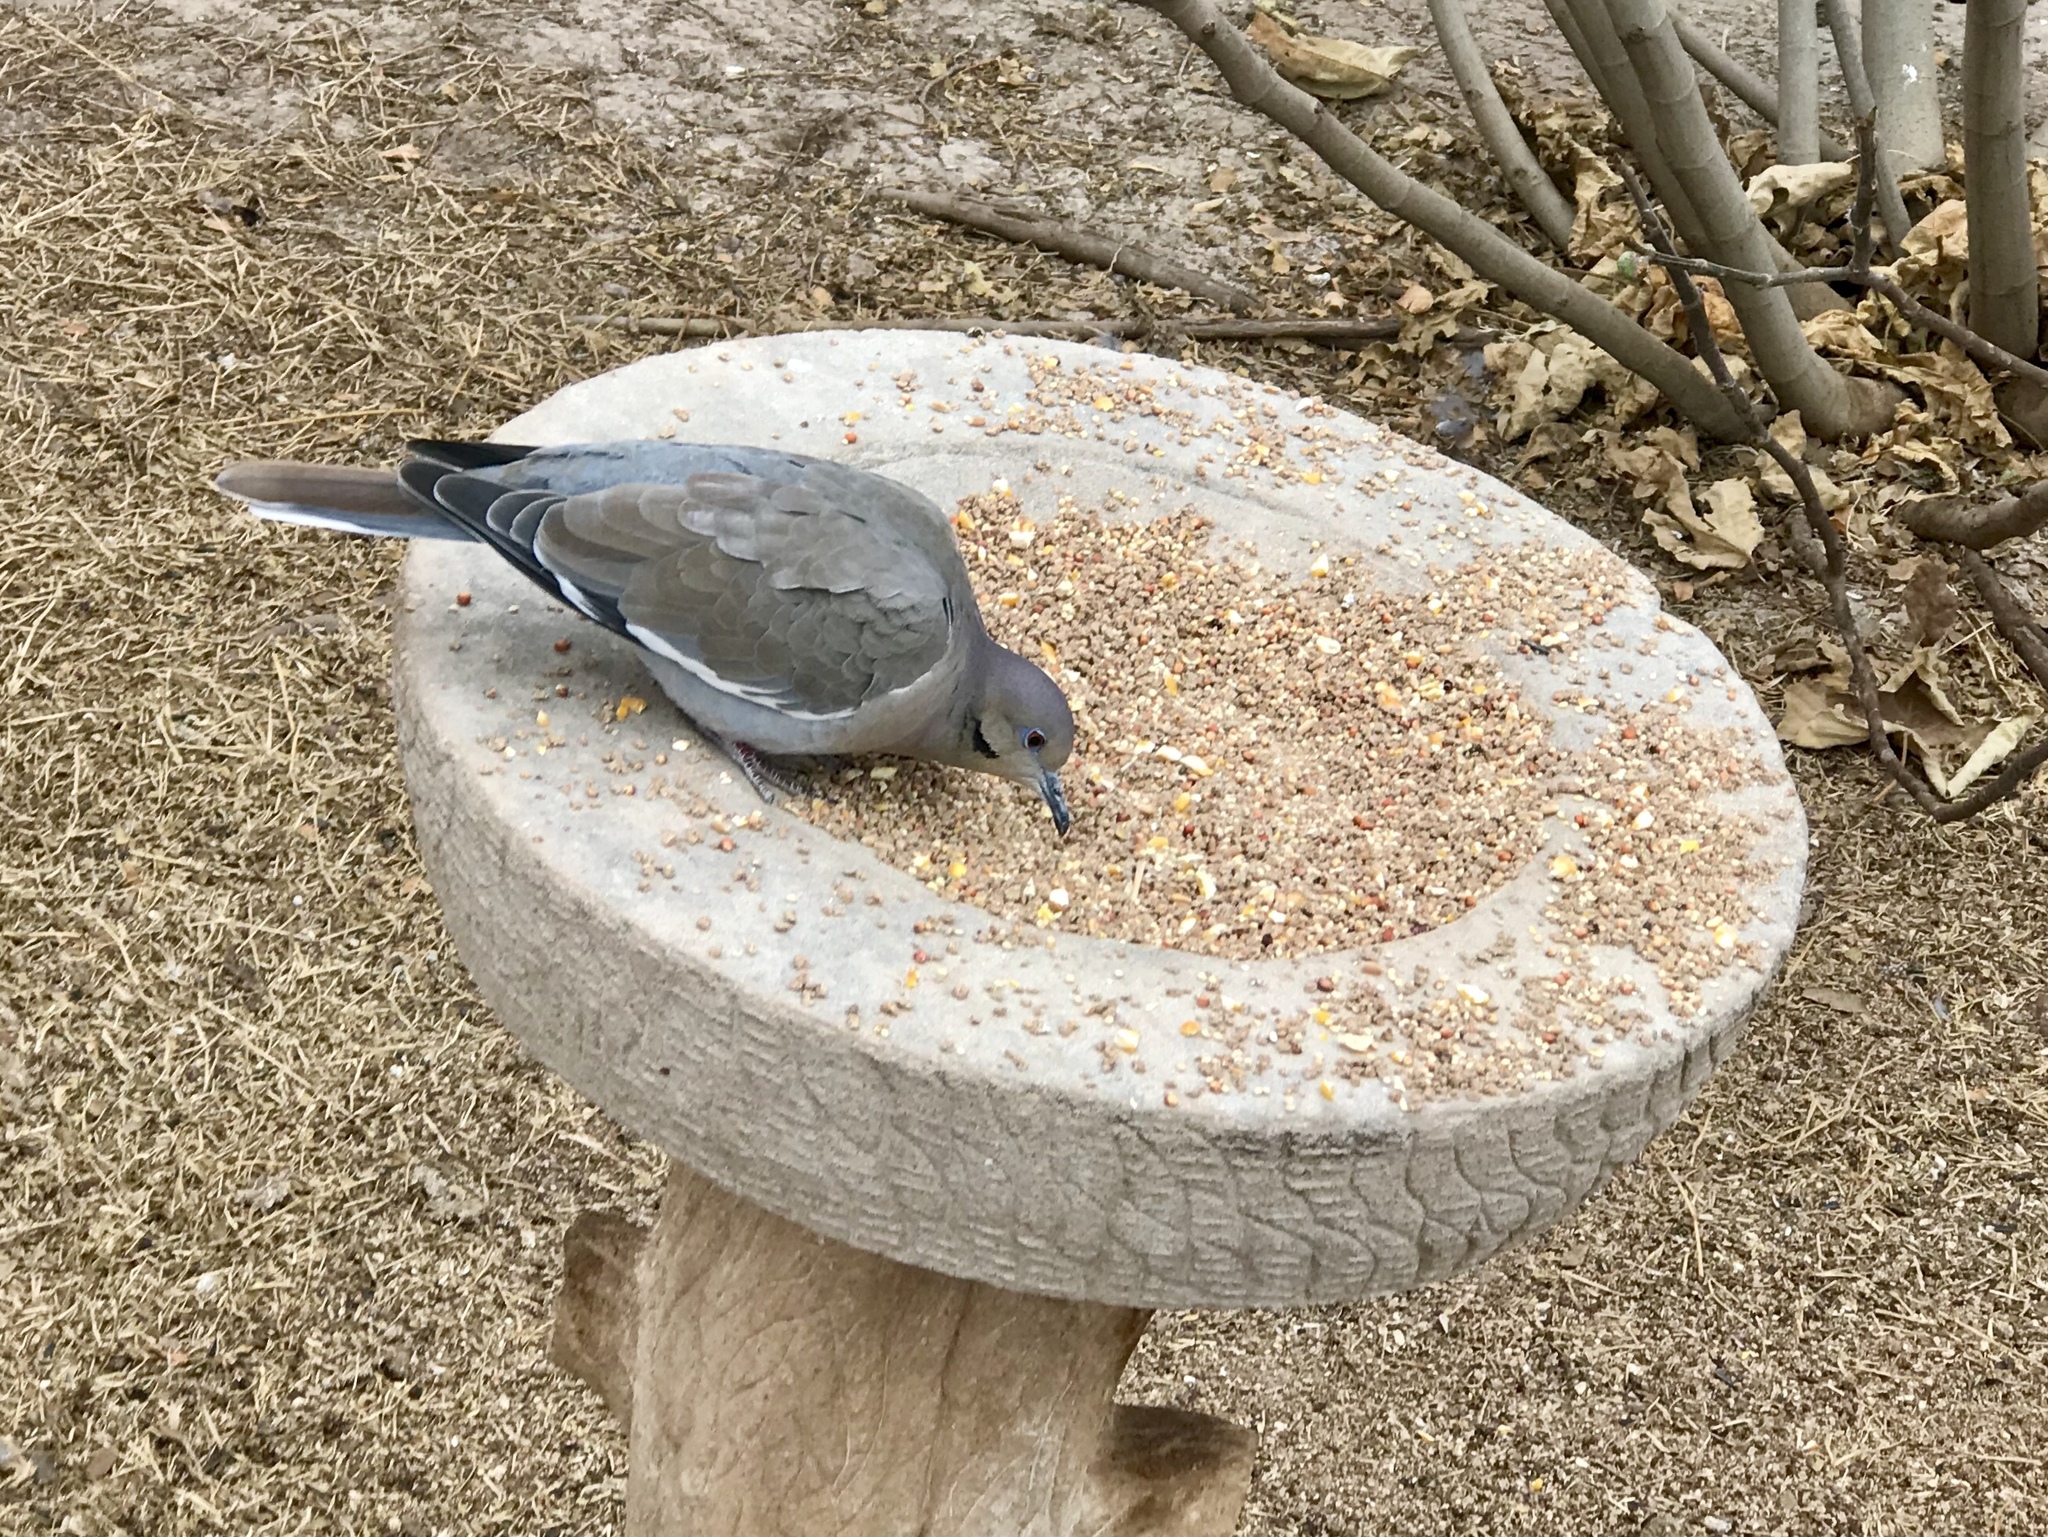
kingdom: Animalia
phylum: Chordata
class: Aves
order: Columbiformes
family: Columbidae
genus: Zenaida
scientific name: Zenaida asiatica
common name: White-winged dove
